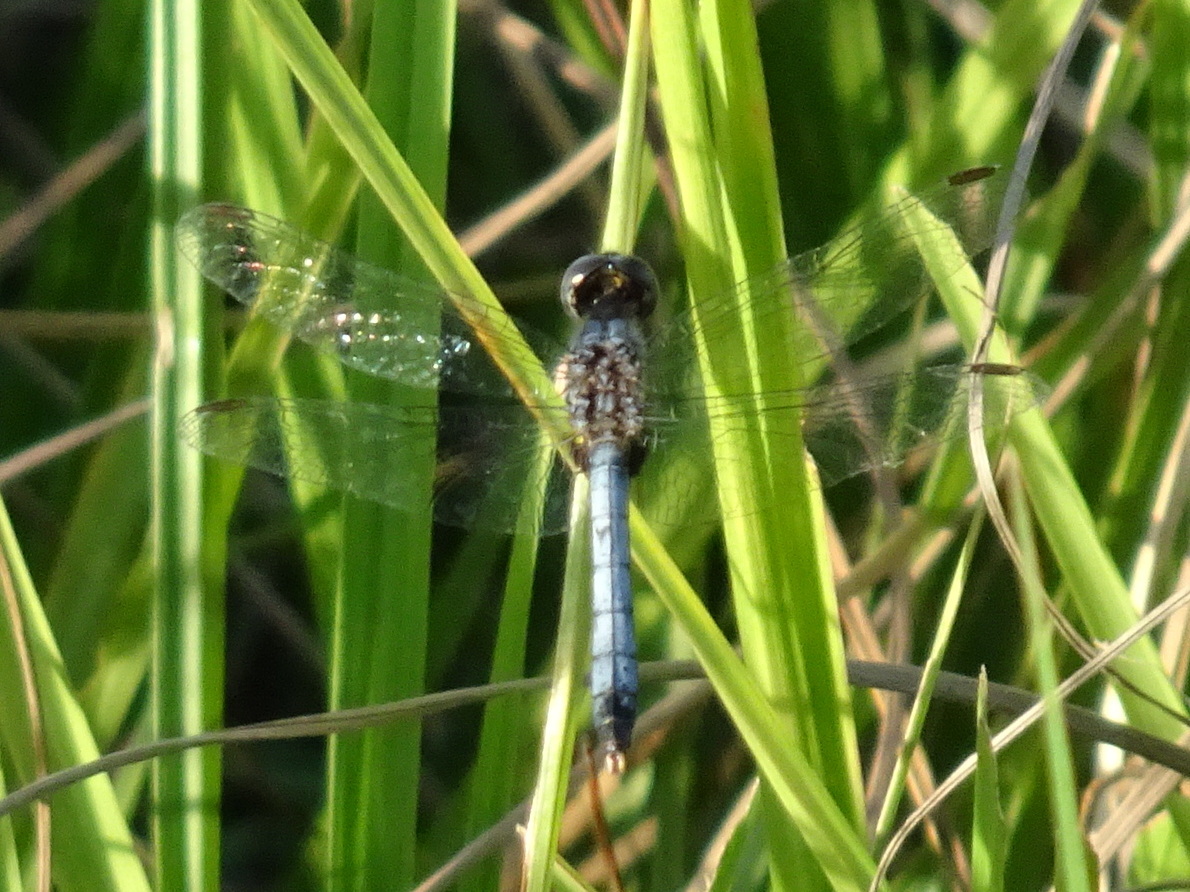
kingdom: Animalia
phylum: Arthropoda
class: Insecta
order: Odonata
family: Libellulidae
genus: Erythrodiplax
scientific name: Erythrodiplax minuscula
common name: Little blue dragonlet
